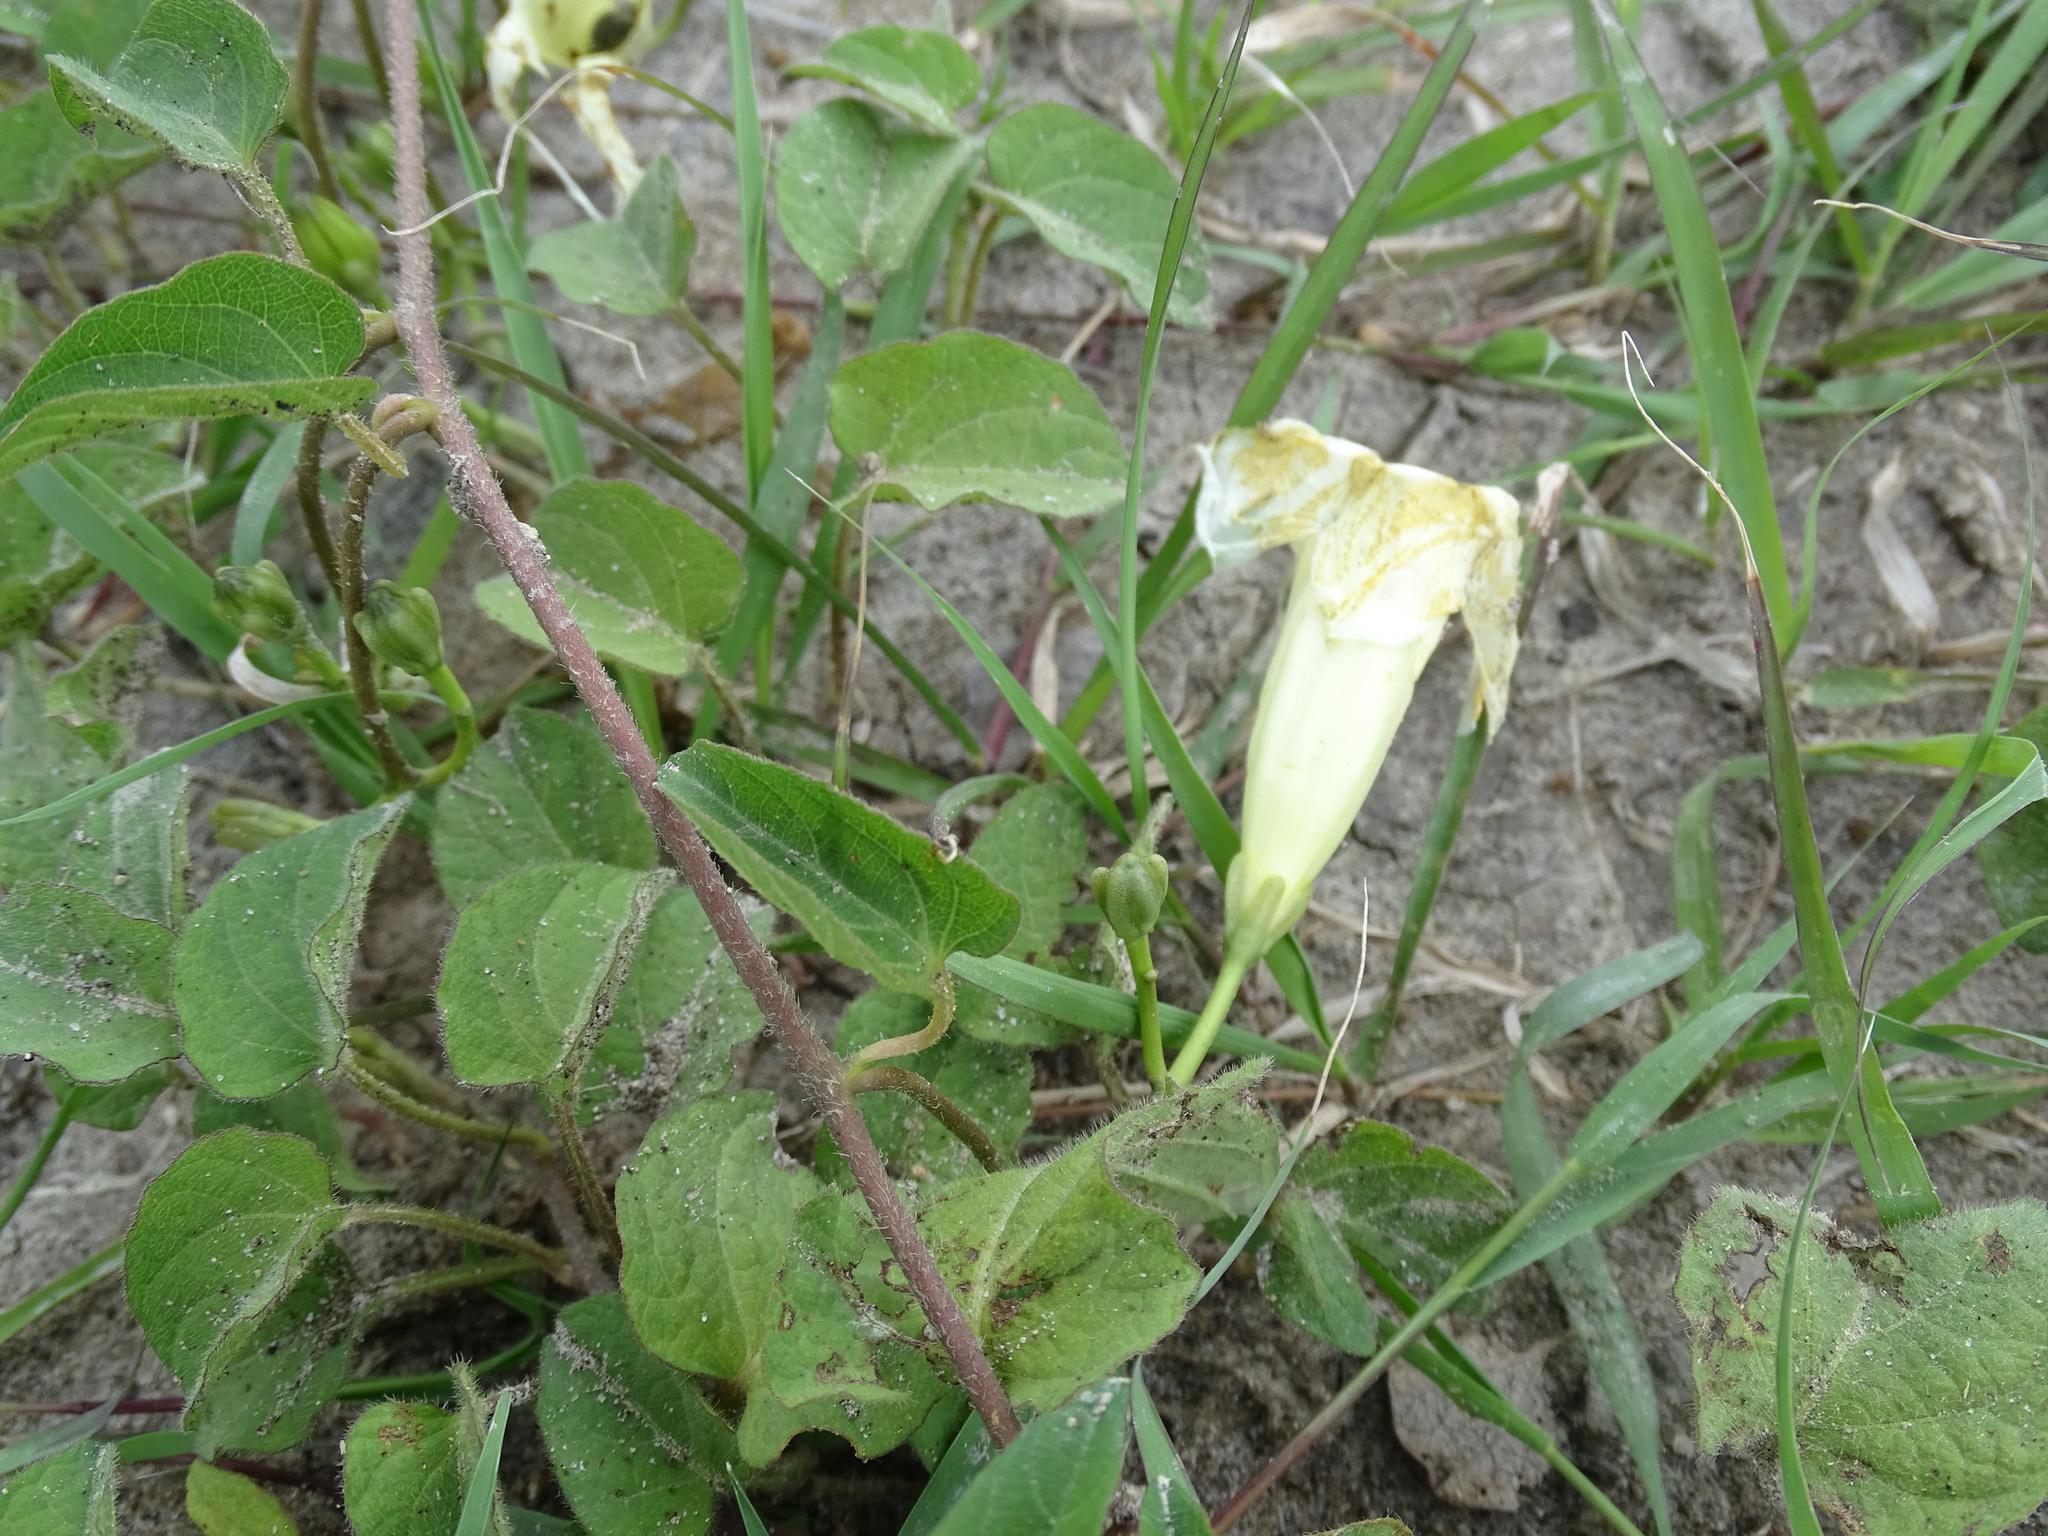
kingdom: Plantae
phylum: Tracheophyta
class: Magnoliopsida
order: Solanales
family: Convolvulaceae
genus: Ipomoea
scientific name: Ipomoea proxima
